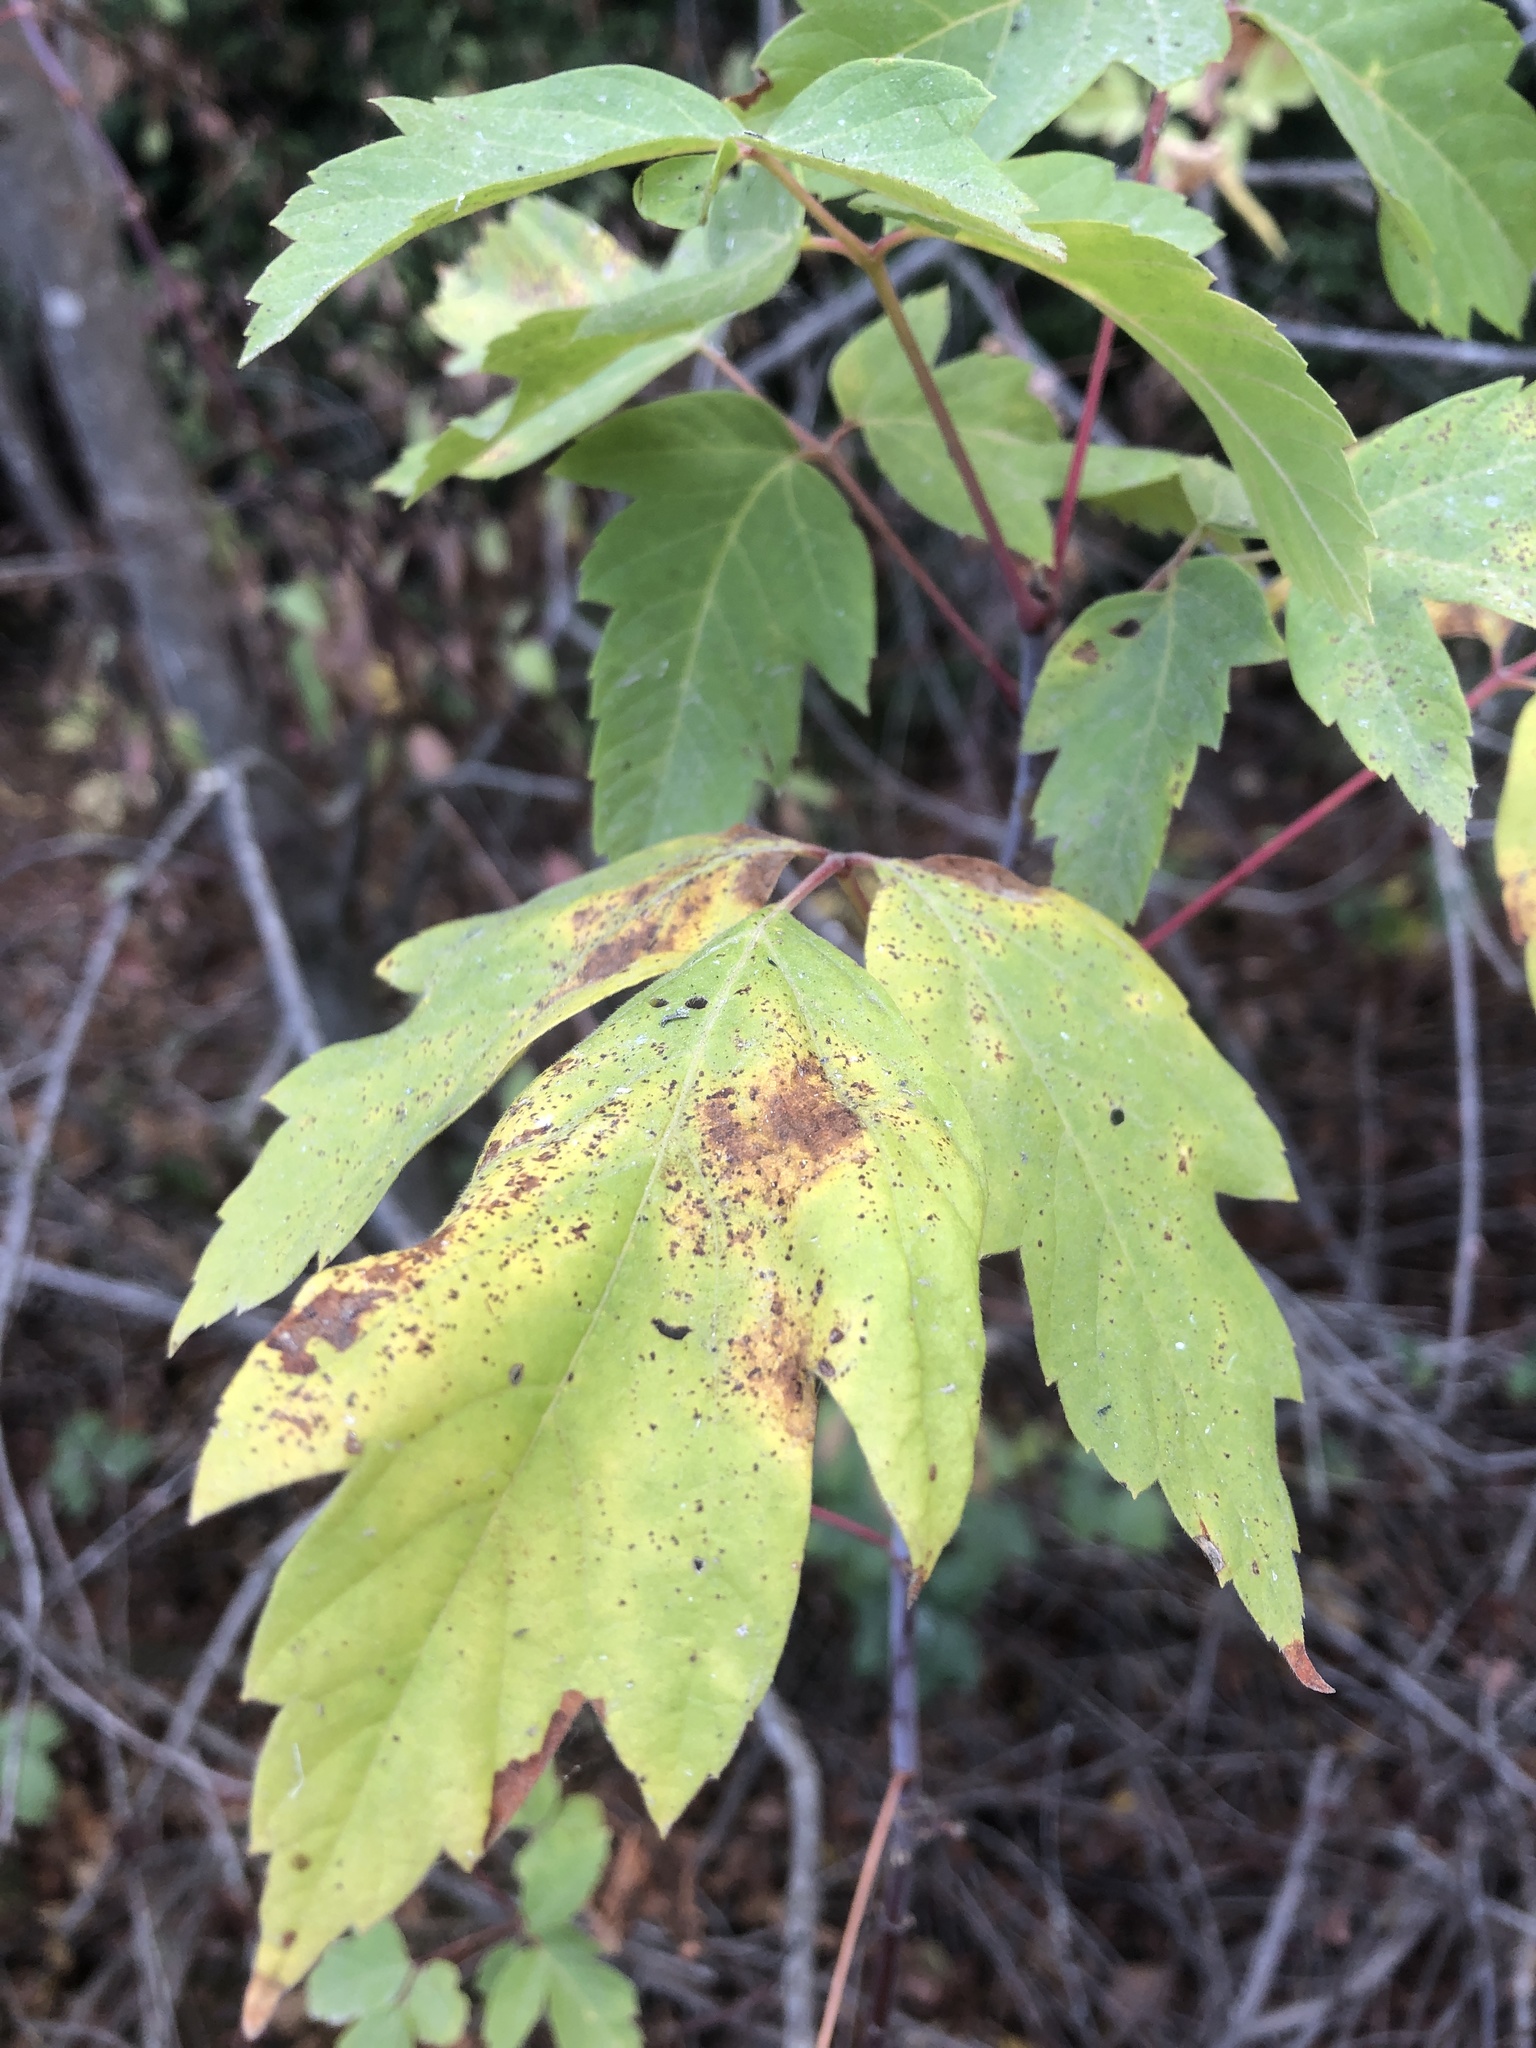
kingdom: Plantae
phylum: Tracheophyta
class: Magnoliopsida
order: Sapindales
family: Sapindaceae
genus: Acer
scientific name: Acer negundo
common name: Ashleaf maple
